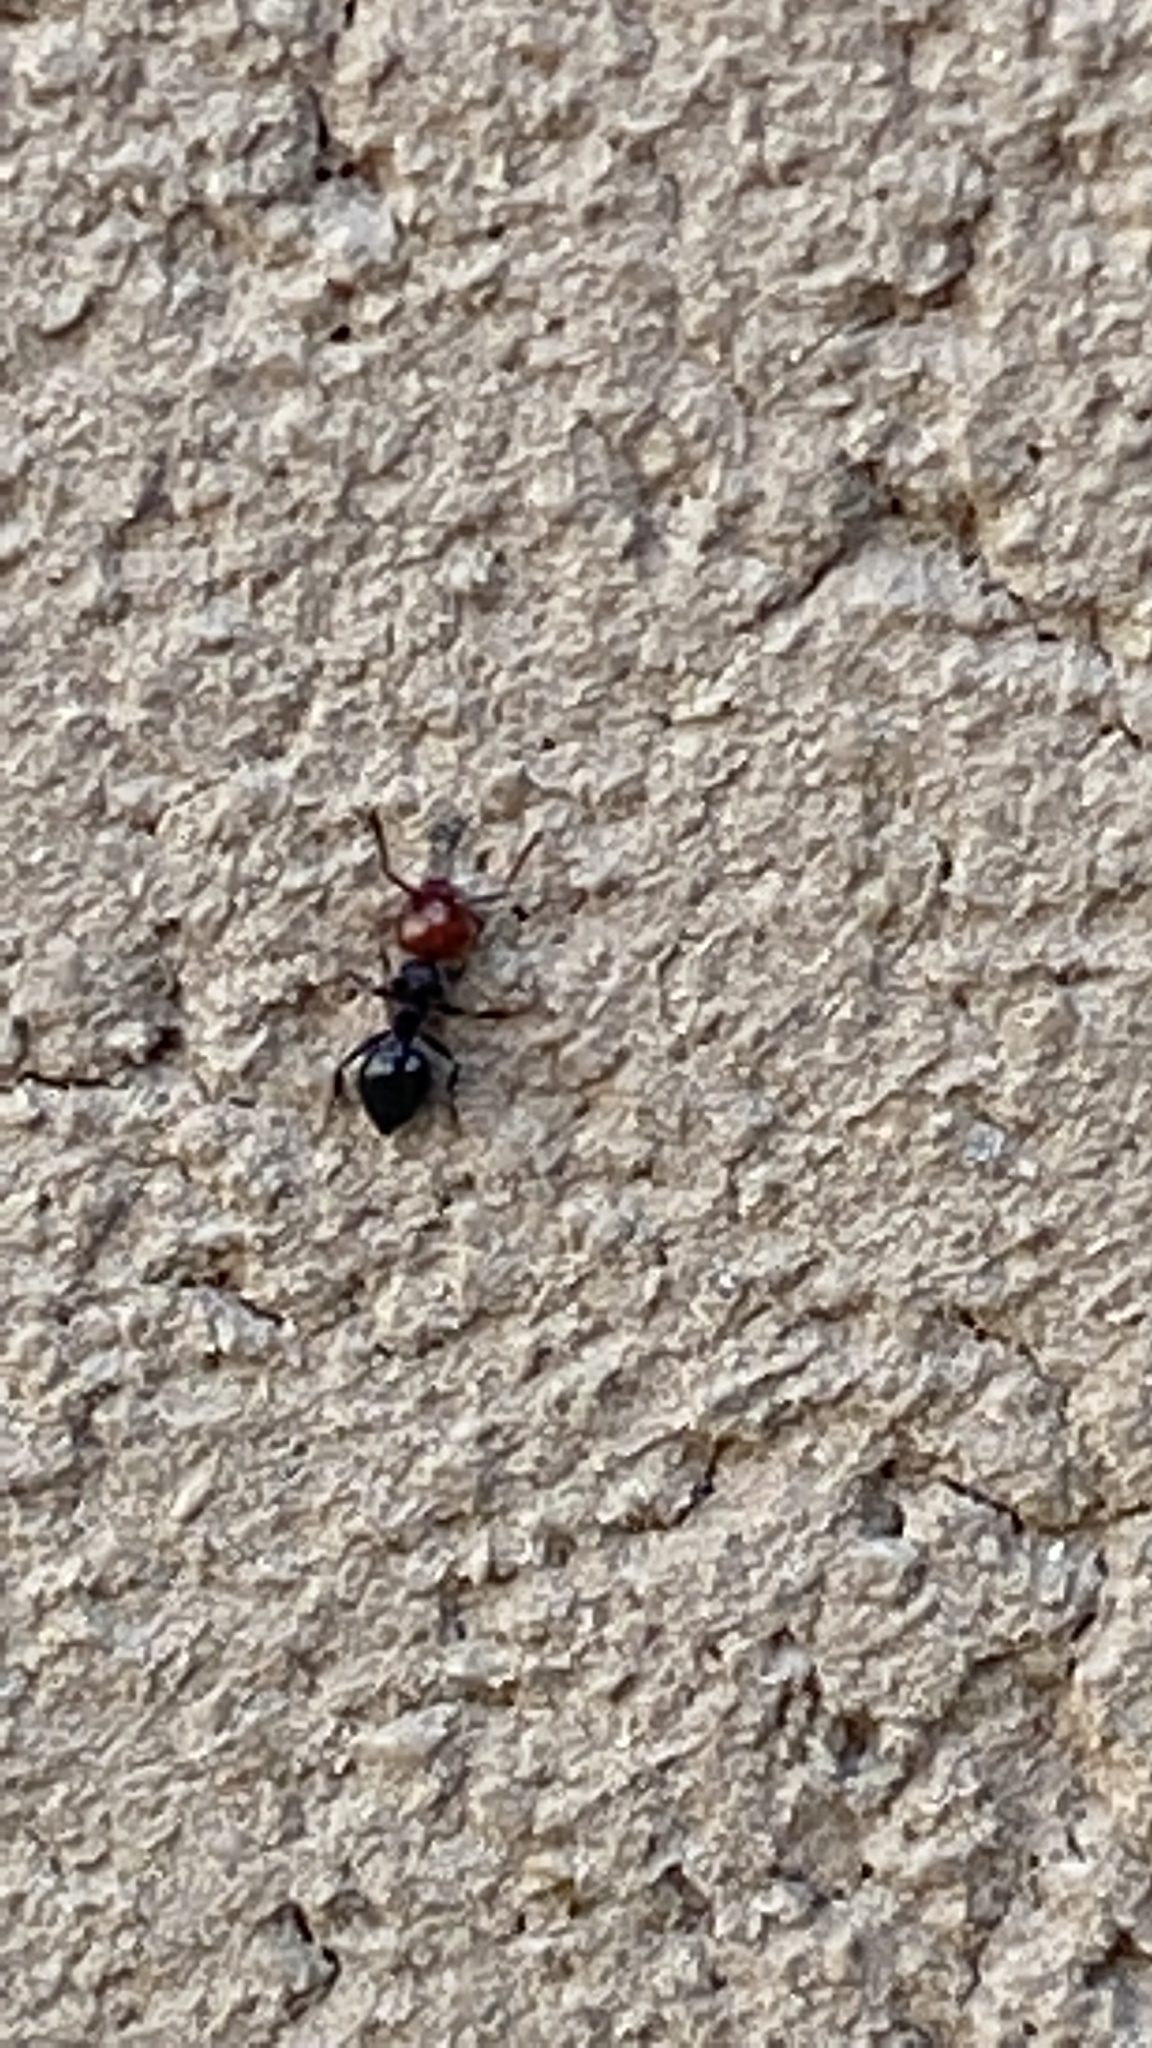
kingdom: Animalia
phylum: Arthropoda
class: Insecta
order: Hymenoptera
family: Formicidae
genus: Crematogaster
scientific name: Crematogaster scutellaris
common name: Fourmi du liège
